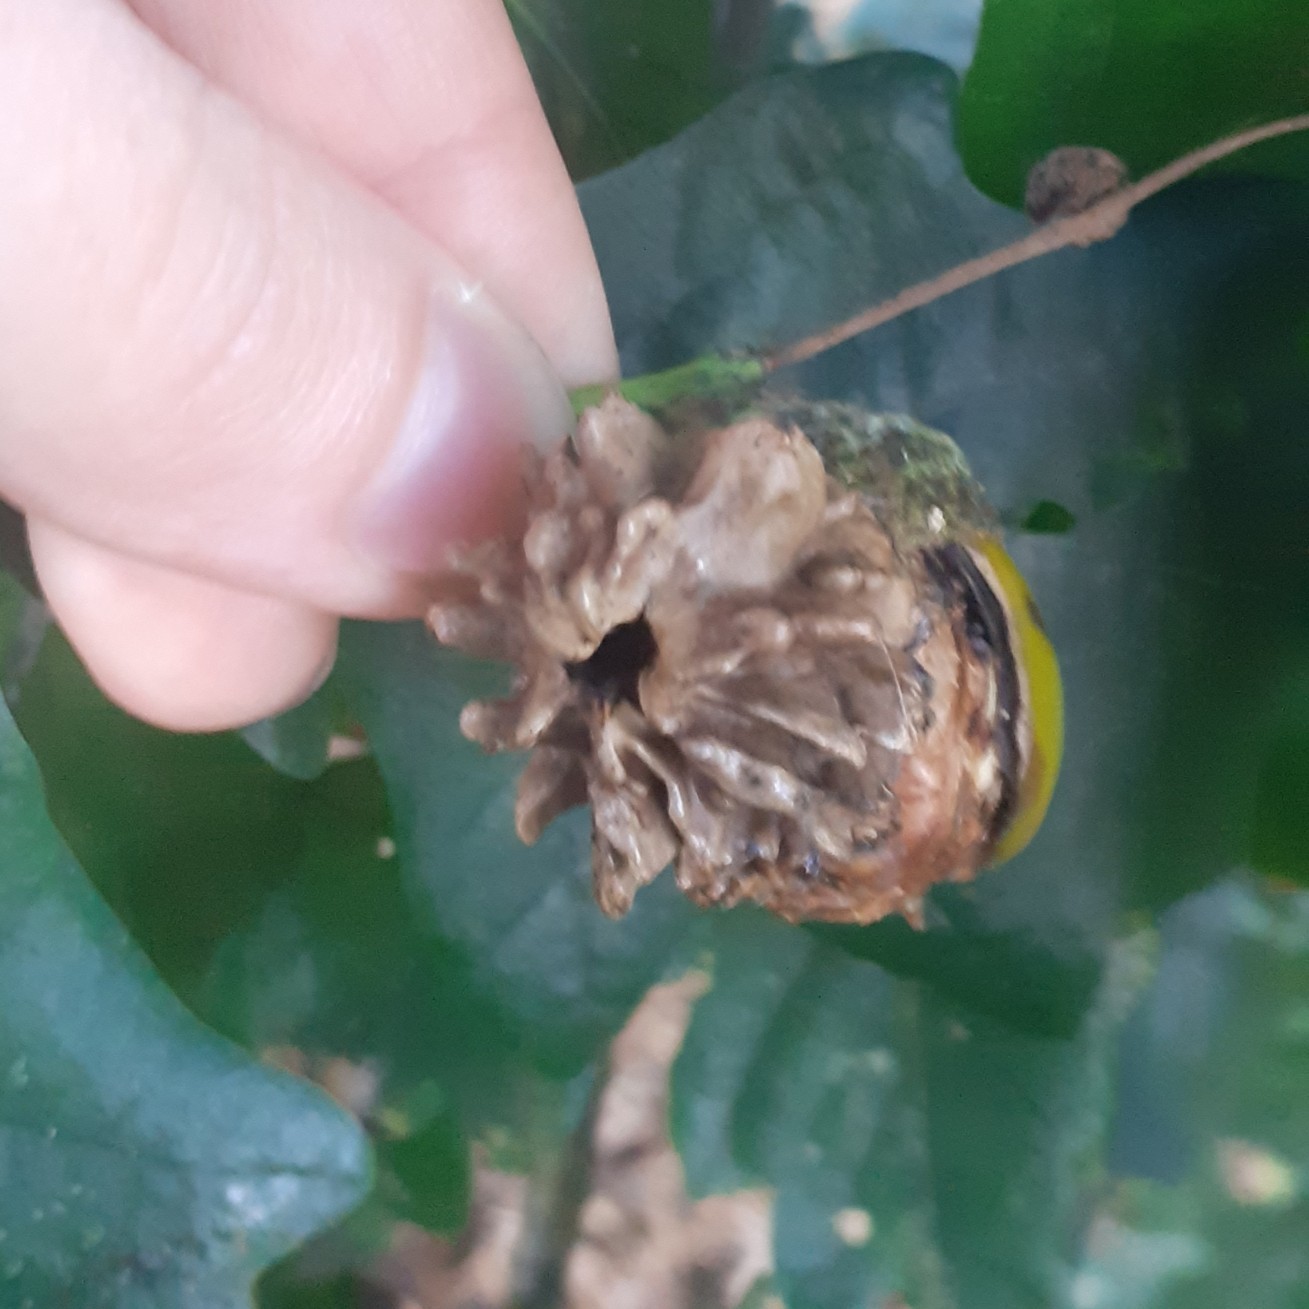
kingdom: Animalia
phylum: Arthropoda
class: Insecta
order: Hymenoptera
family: Cynipidae
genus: Andricus
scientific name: Andricus quercuscalicis
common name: Knopper gall
